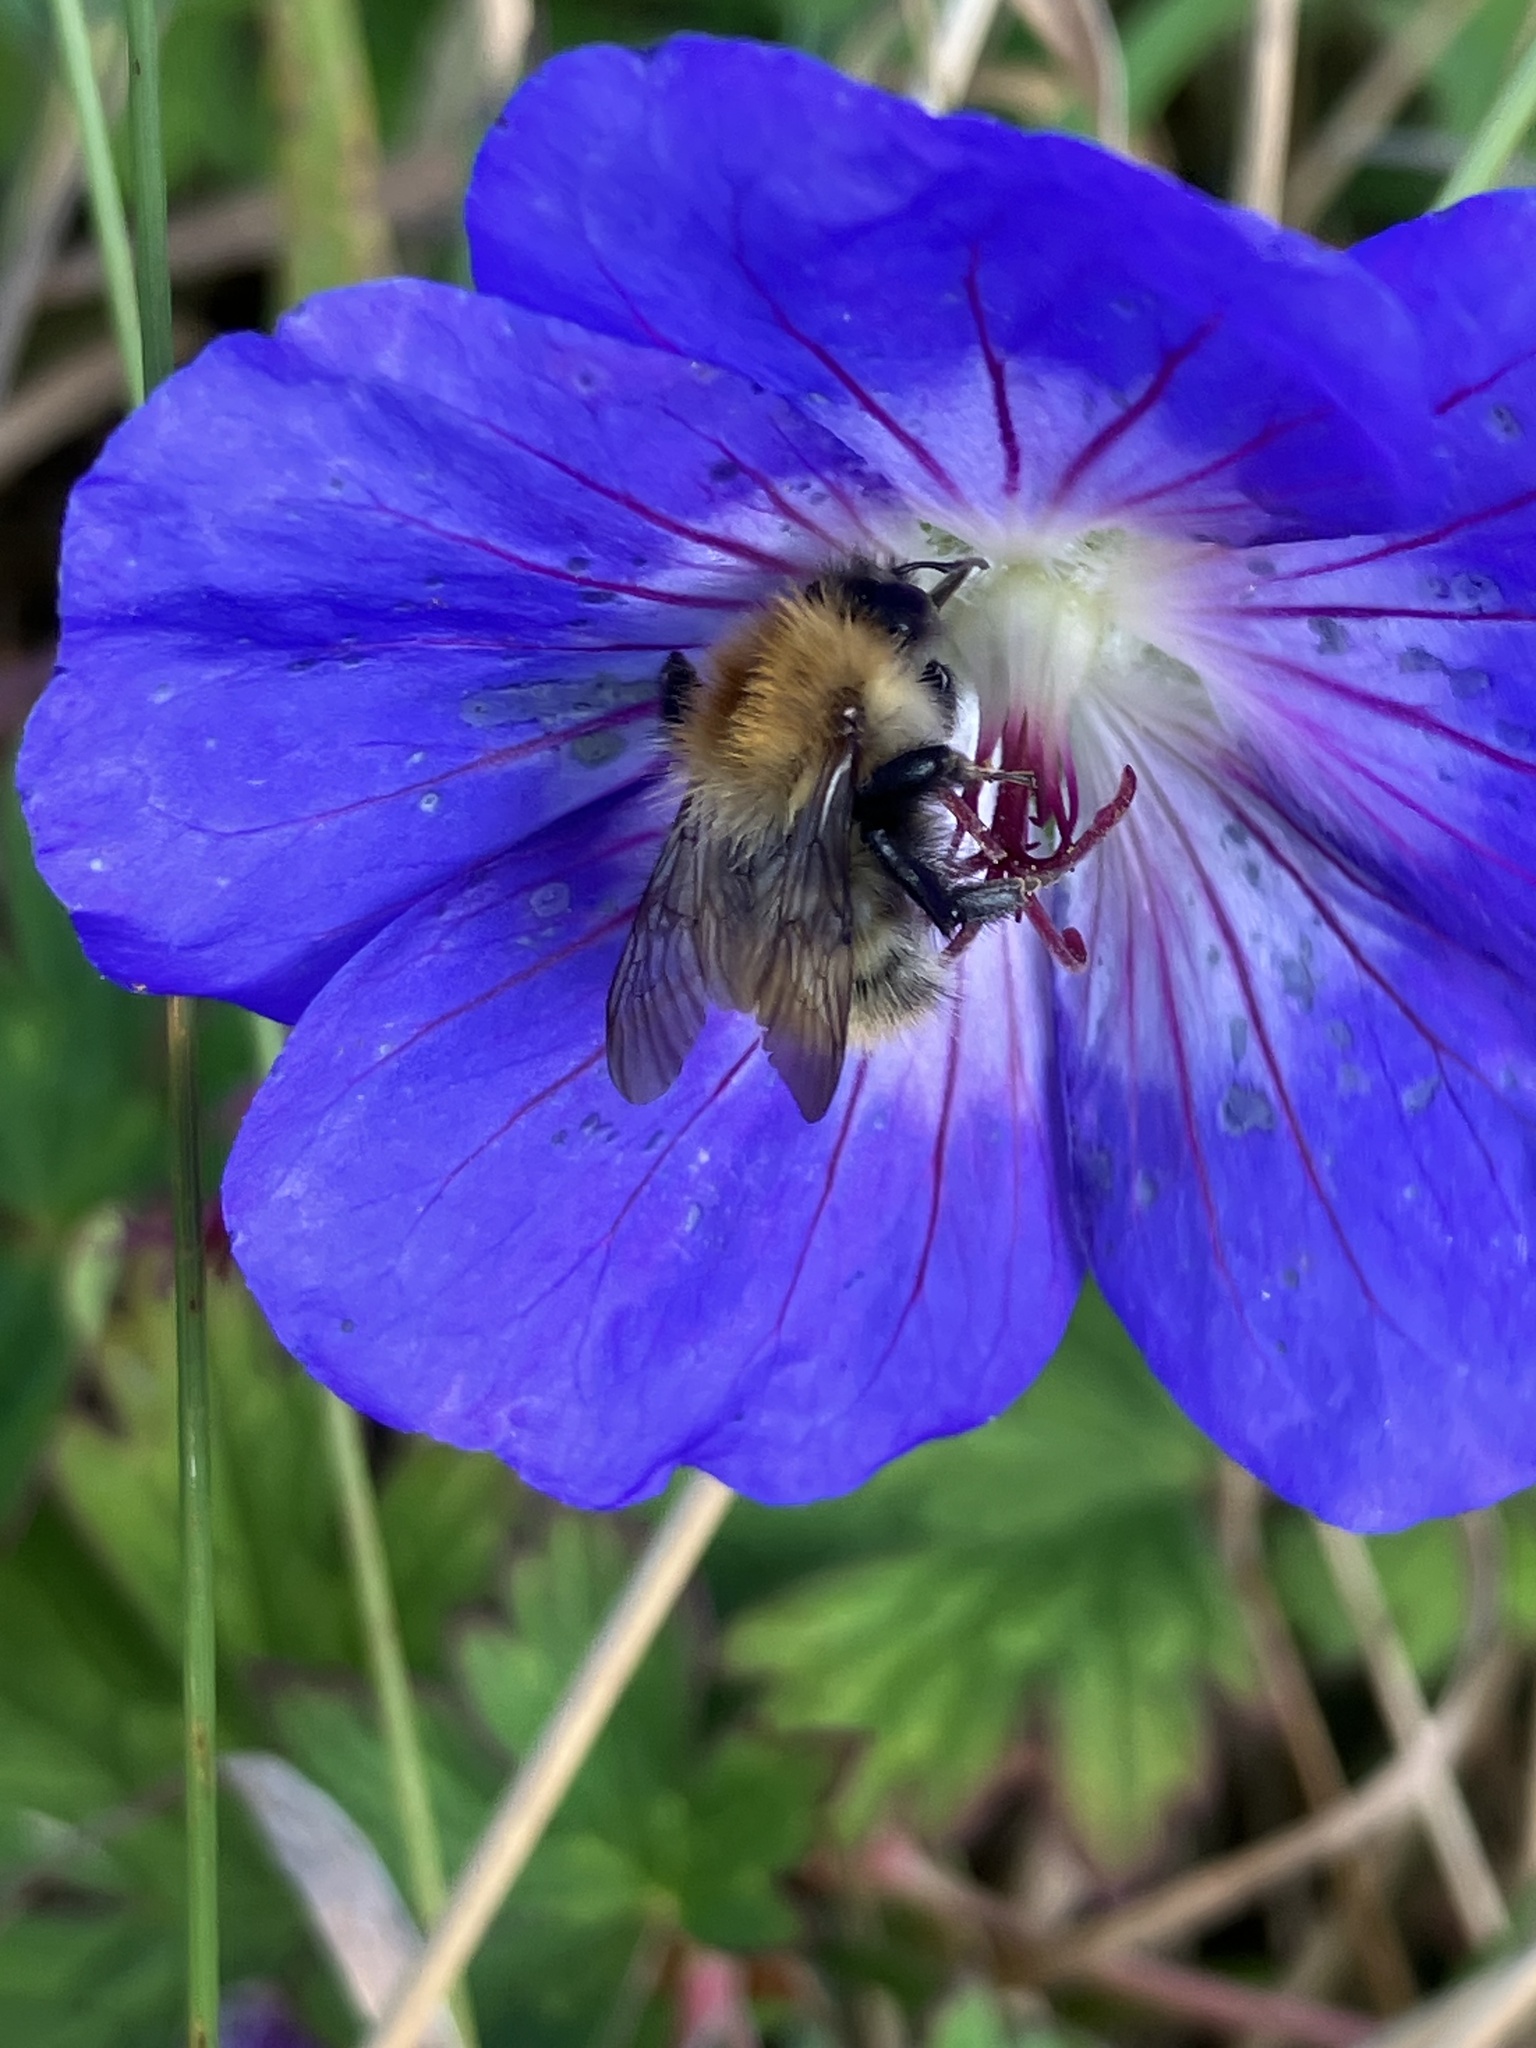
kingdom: Animalia
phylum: Arthropoda
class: Insecta
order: Hymenoptera
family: Apidae
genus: Bombus
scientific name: Bombus pascuorum
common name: Common carder bee
